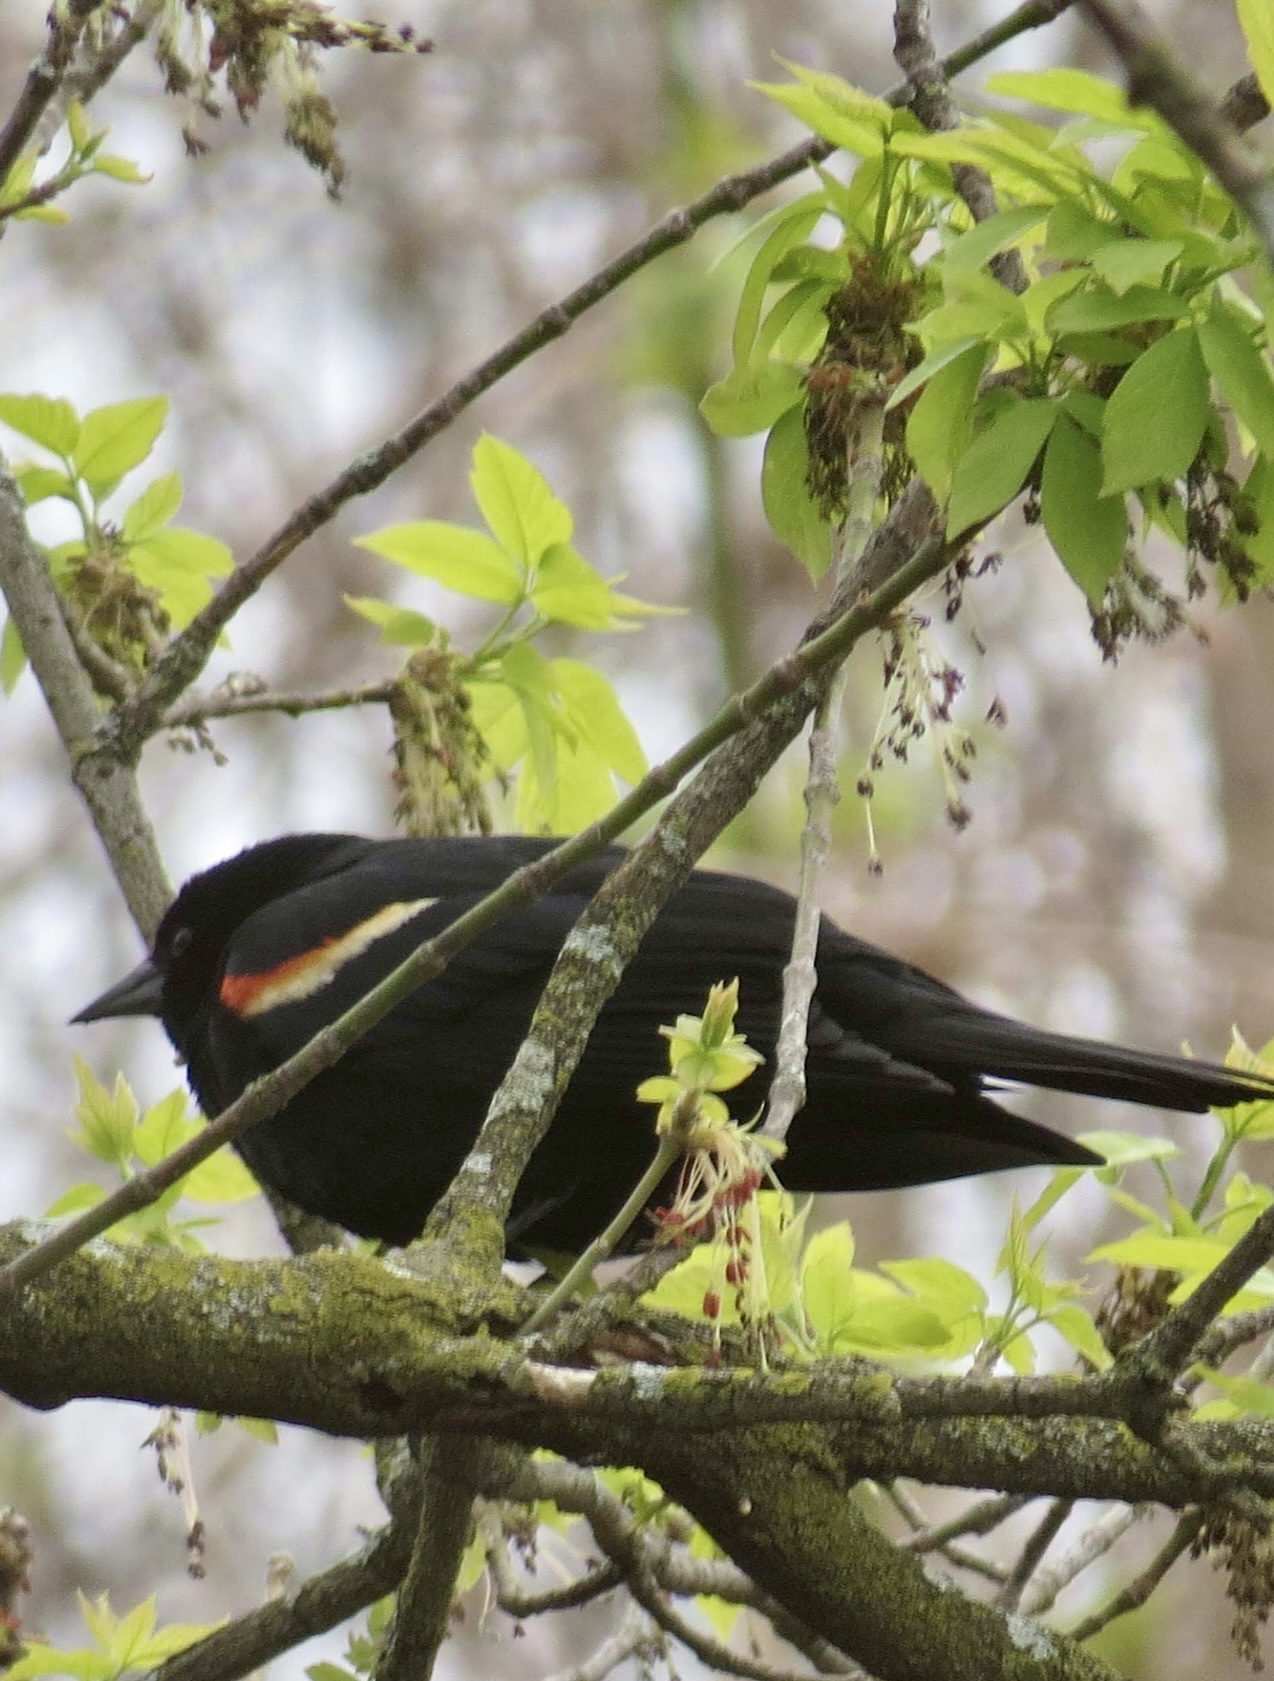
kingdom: Animalia
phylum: Chordata
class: Aves
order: Passeriformes
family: Icteridae
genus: Agelaius
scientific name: Agelaius phoeniceus
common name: Red-winged blackbird
